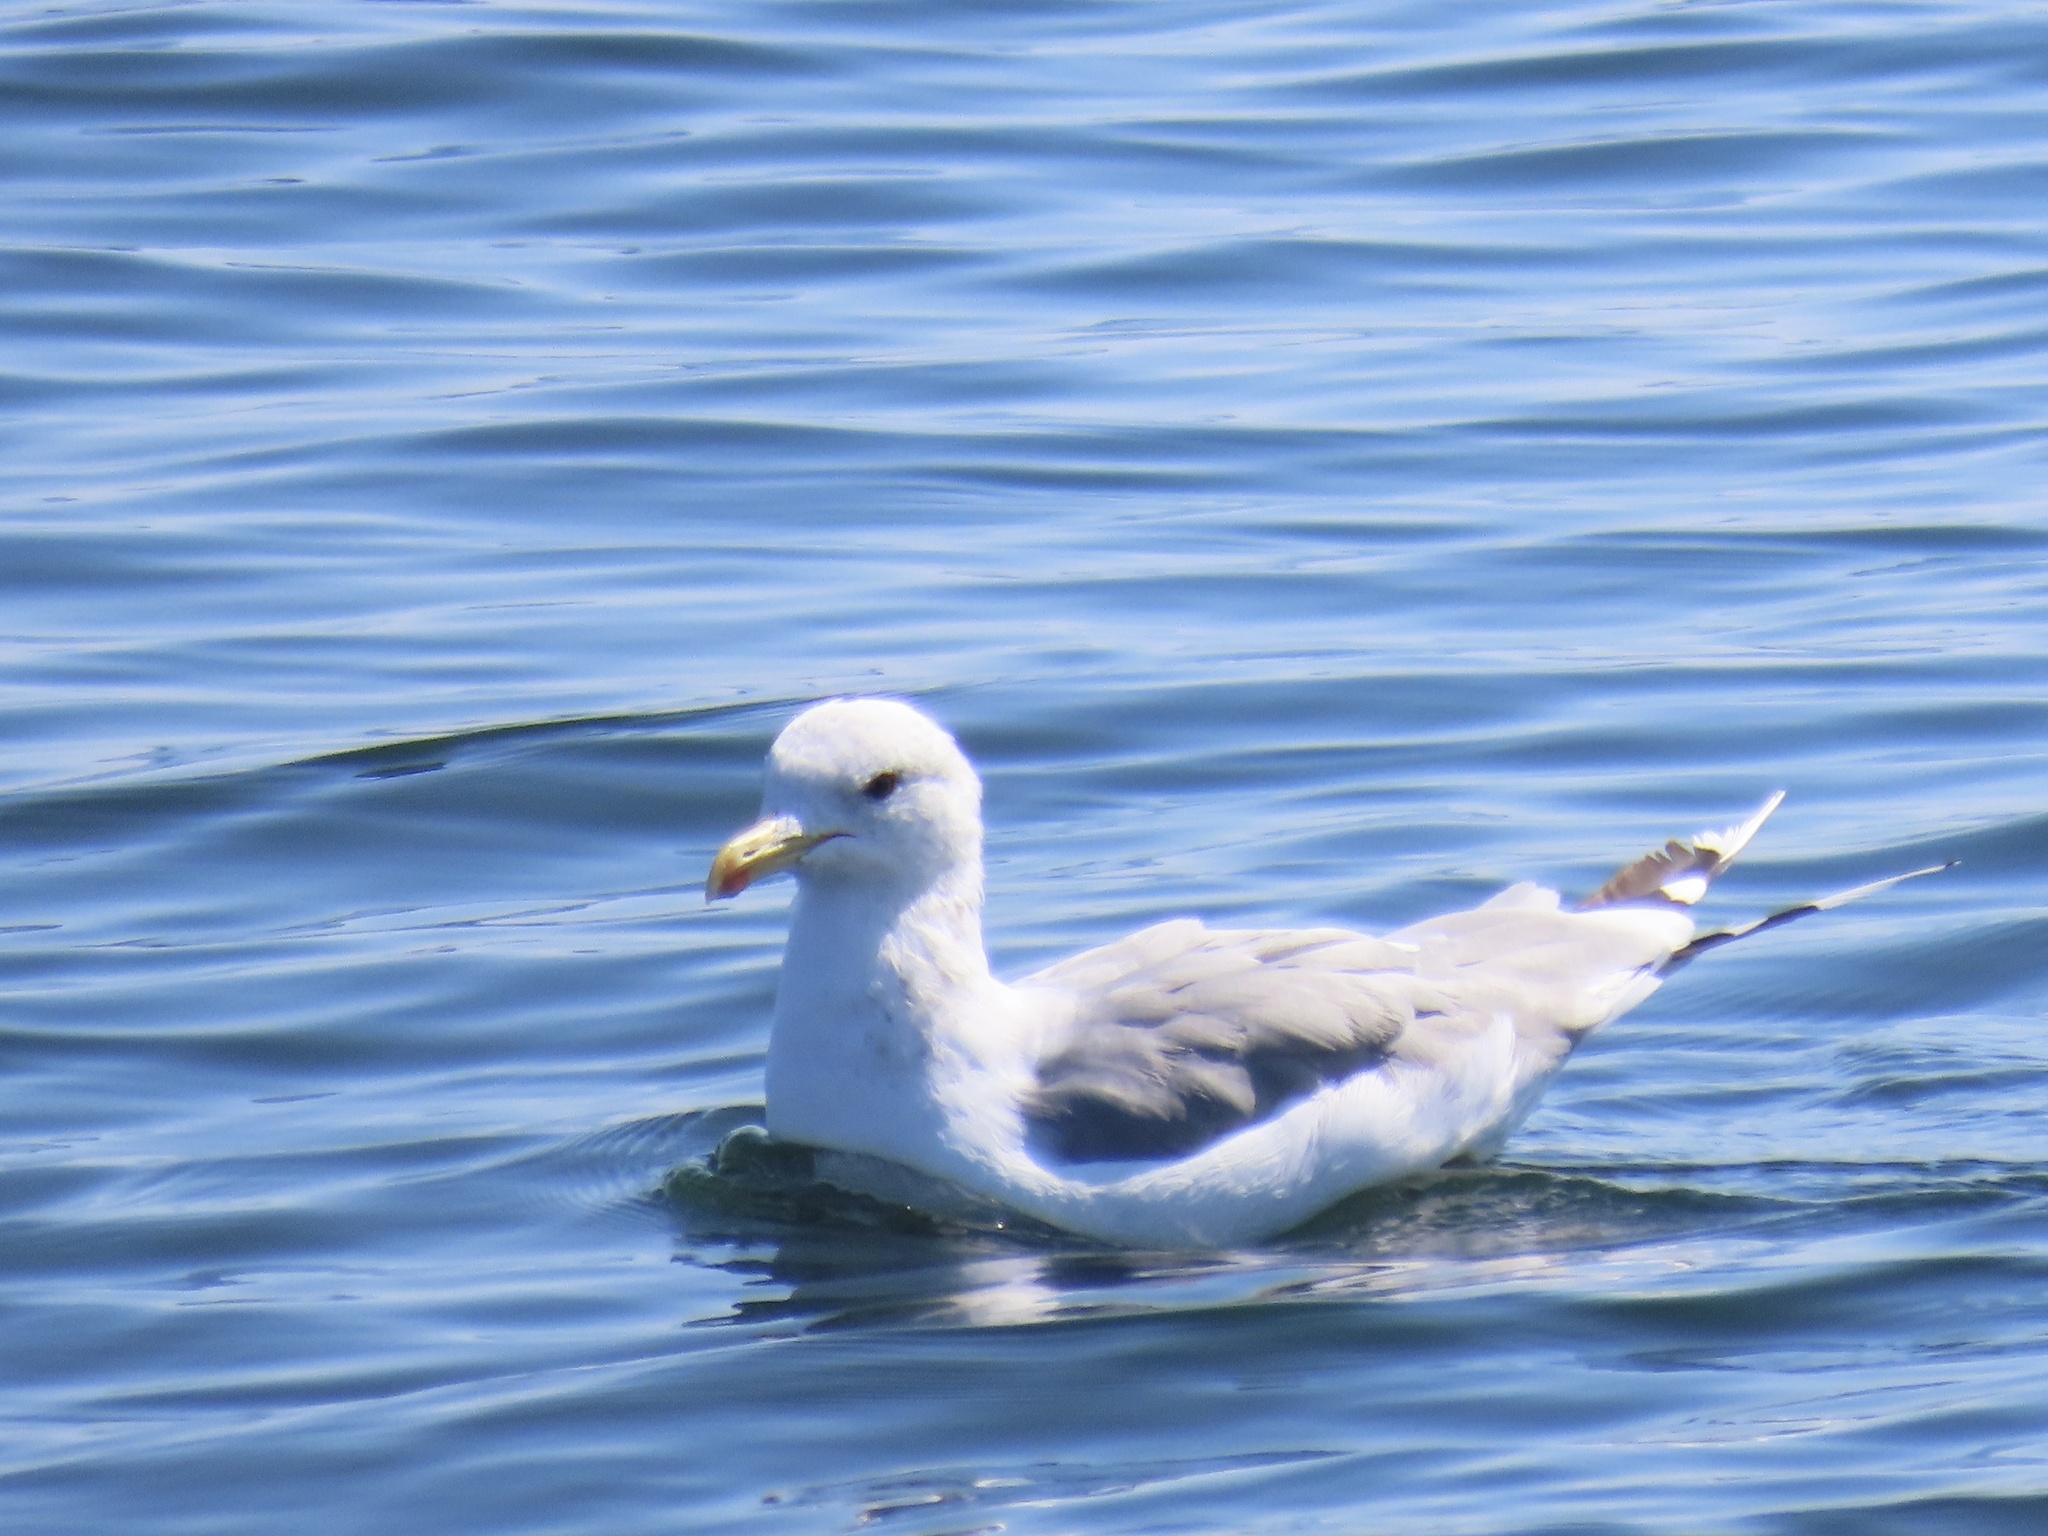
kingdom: Animalia
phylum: Chordata
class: Aves
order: Charadriiformes
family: Laridae
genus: Larus
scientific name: Larus californicus
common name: California gull
